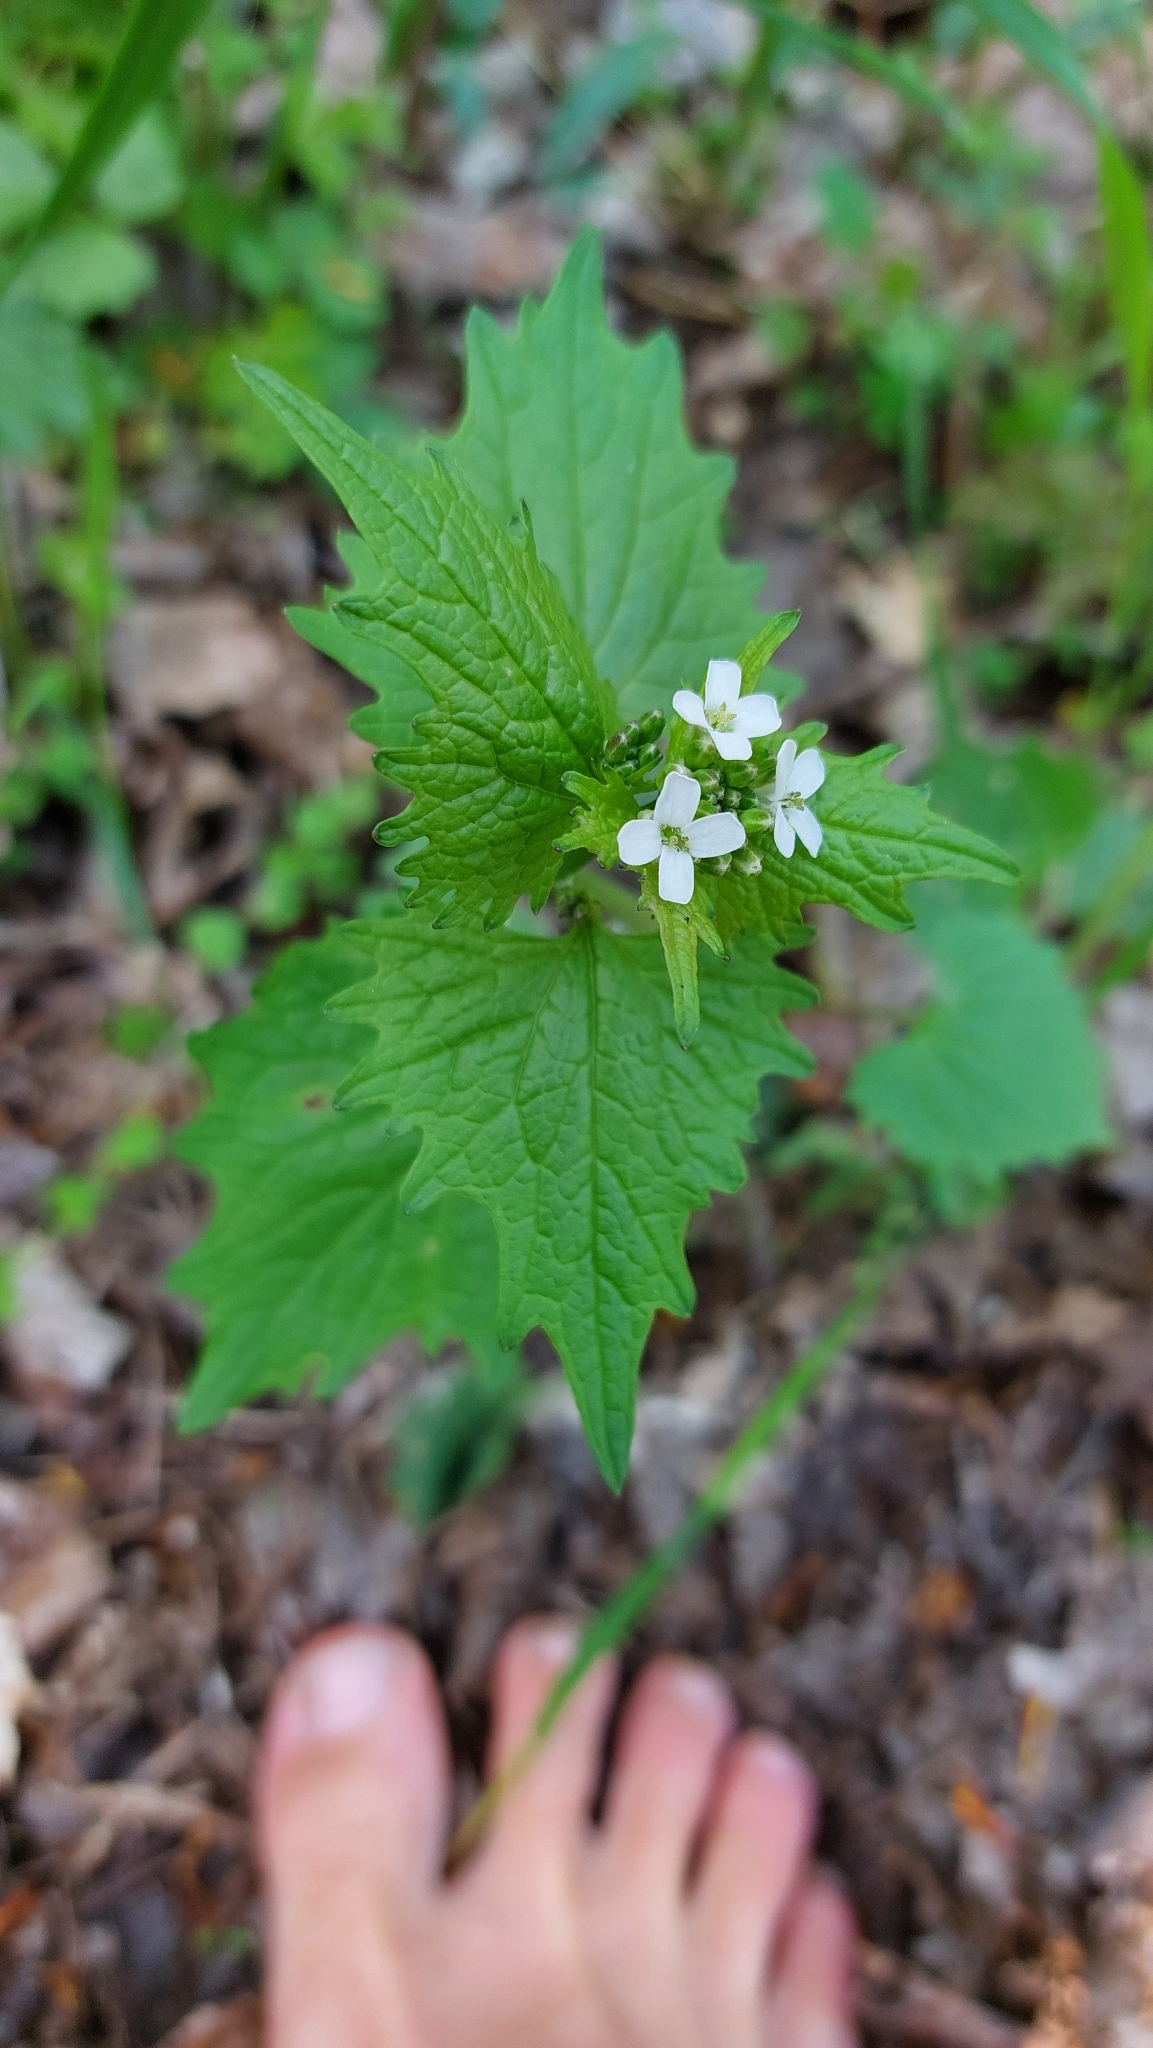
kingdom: Plantae
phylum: Tracheophyta
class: Magnoliopsida
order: Brassicales
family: Brassicaceae
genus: Alliaria
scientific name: Alliaria petiolata
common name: Garlic mustard
